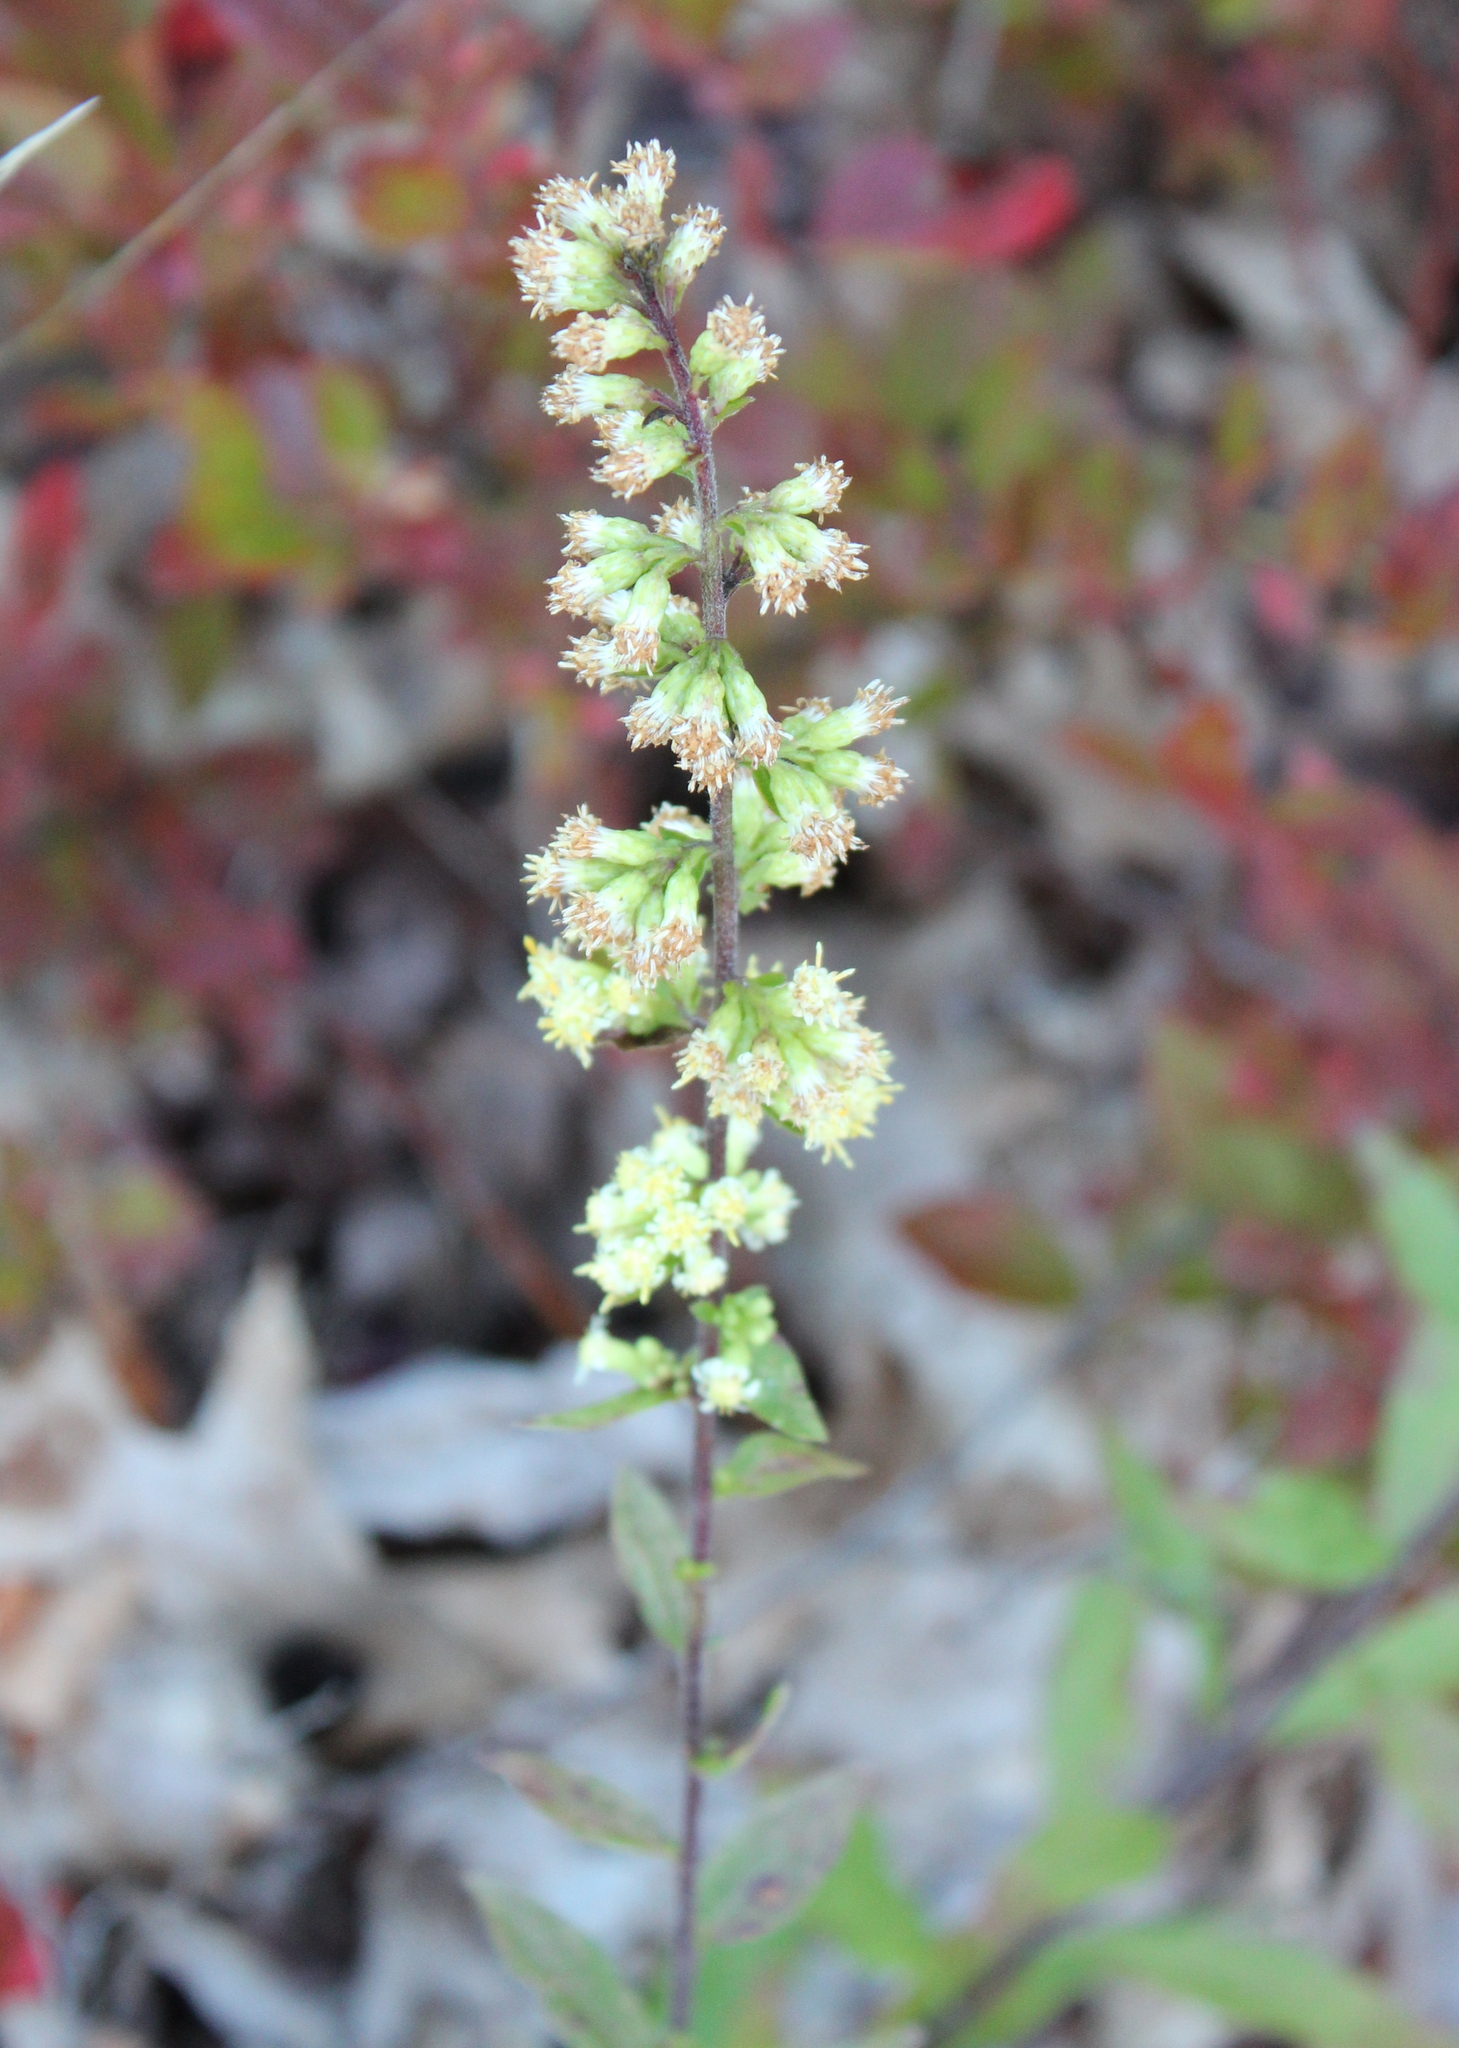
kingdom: Plantae
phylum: Tracheophyta
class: Magnoliopsida
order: Asterales
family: Asteraceae
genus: Solidago
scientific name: Solidago bicolor
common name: Silverrod
